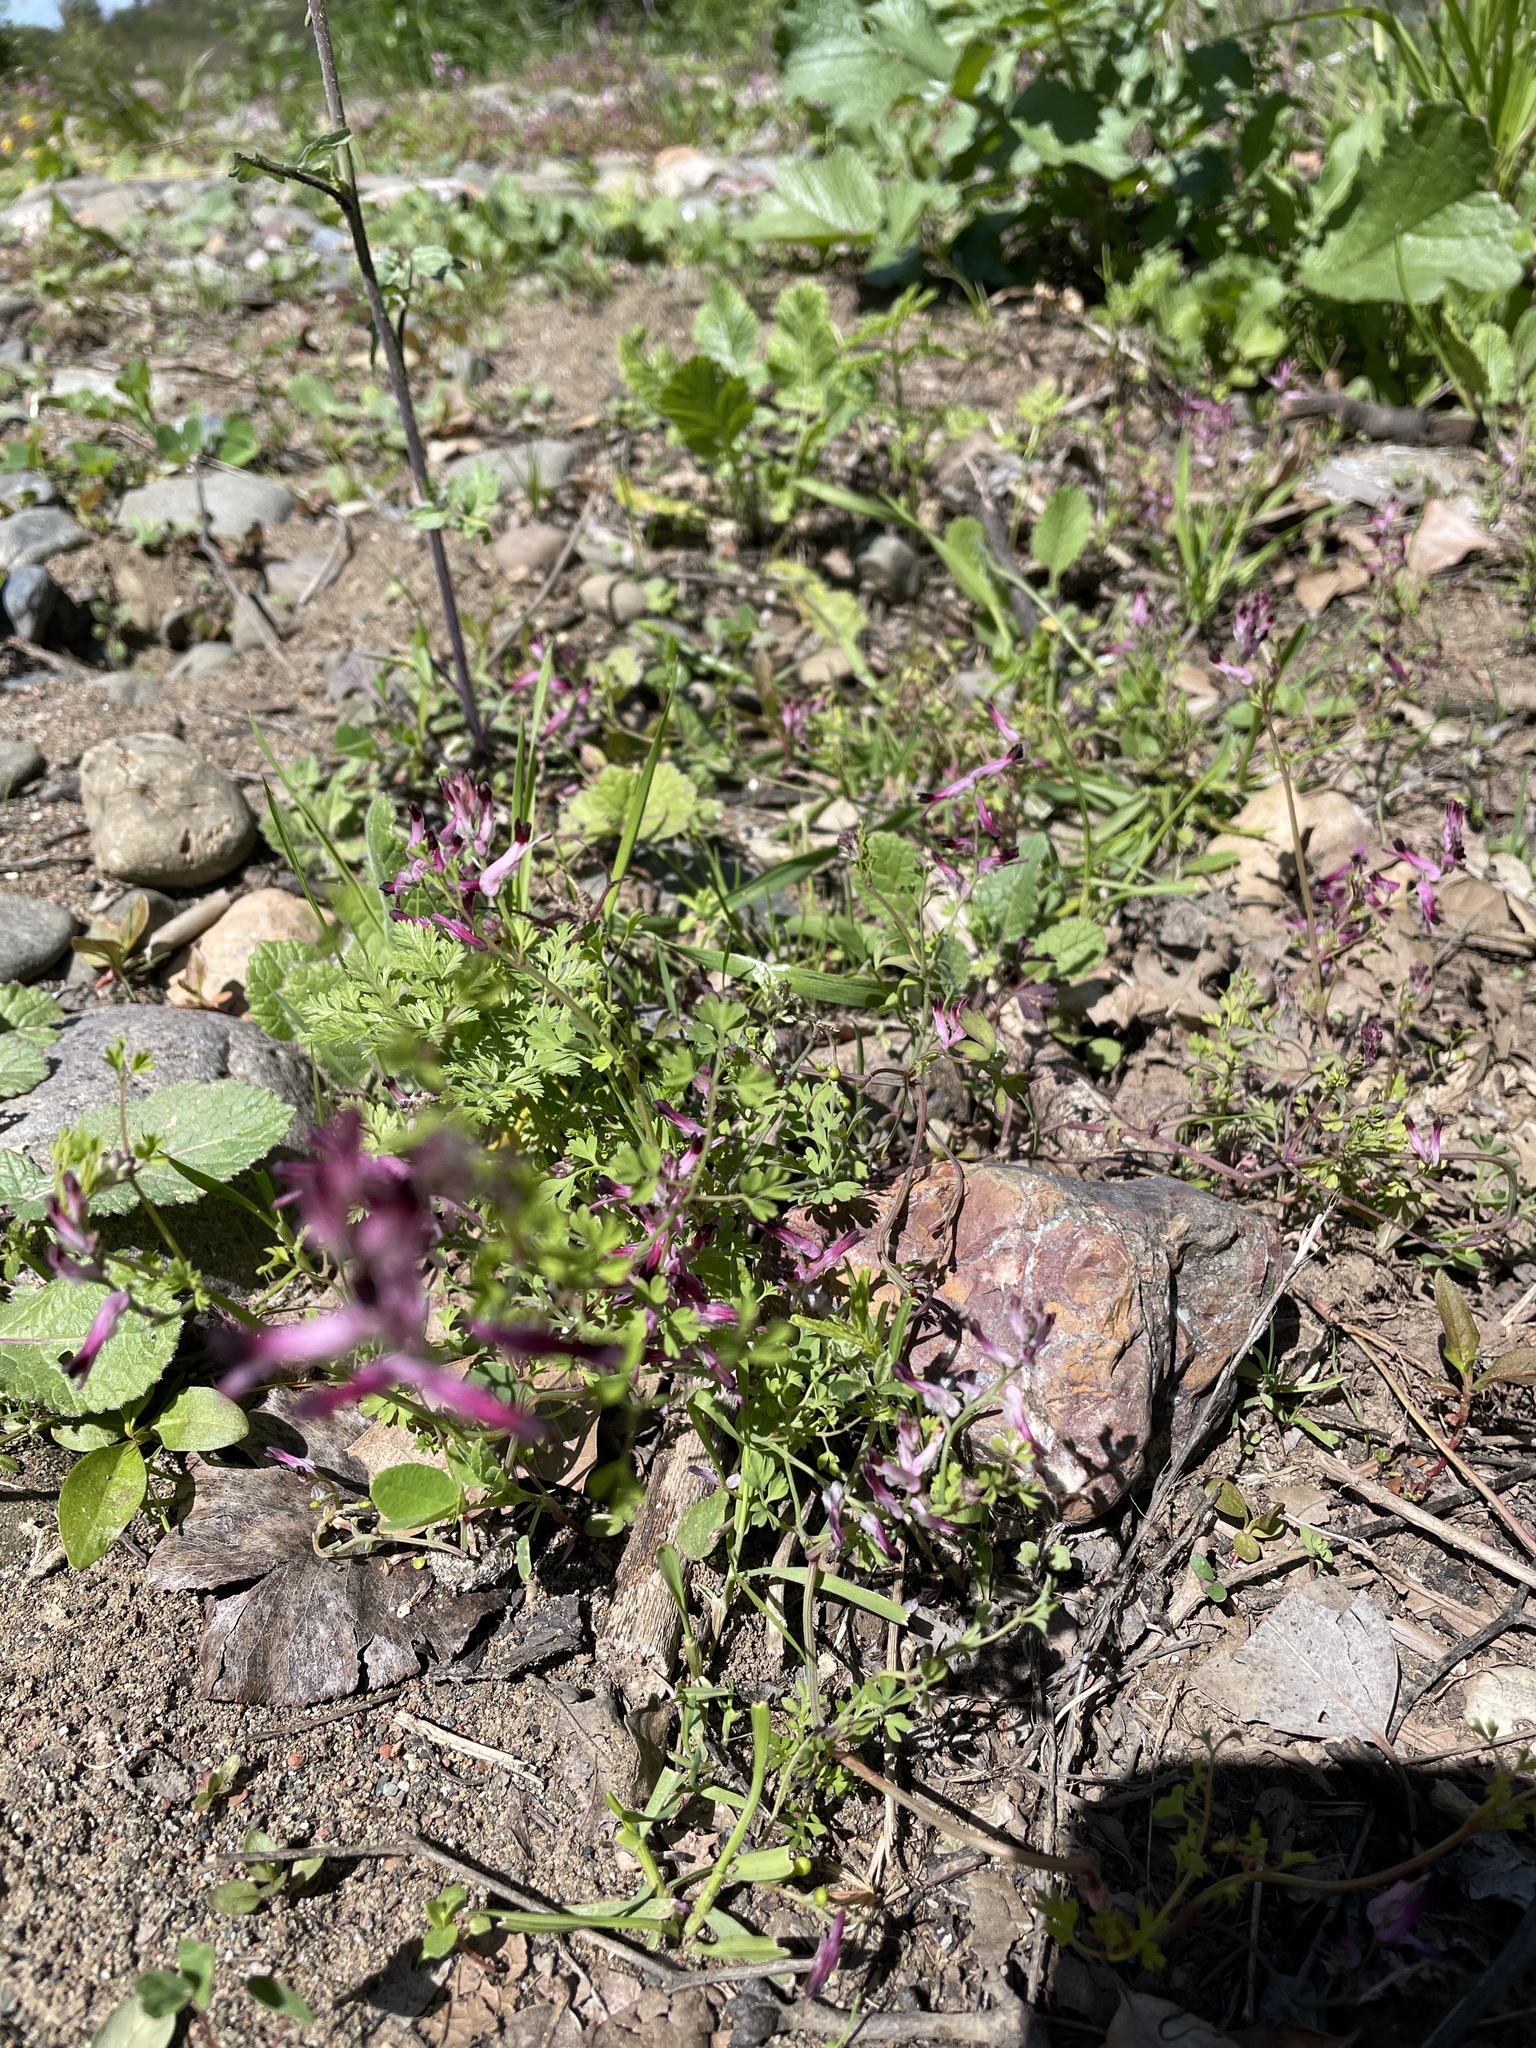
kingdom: Plantae
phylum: Tracheophyta
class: Magnoliopsida
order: Ranunculales
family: Papaveraceae
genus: Fumaria
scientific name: Fumaria muralis
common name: Common ramping-fumitory
